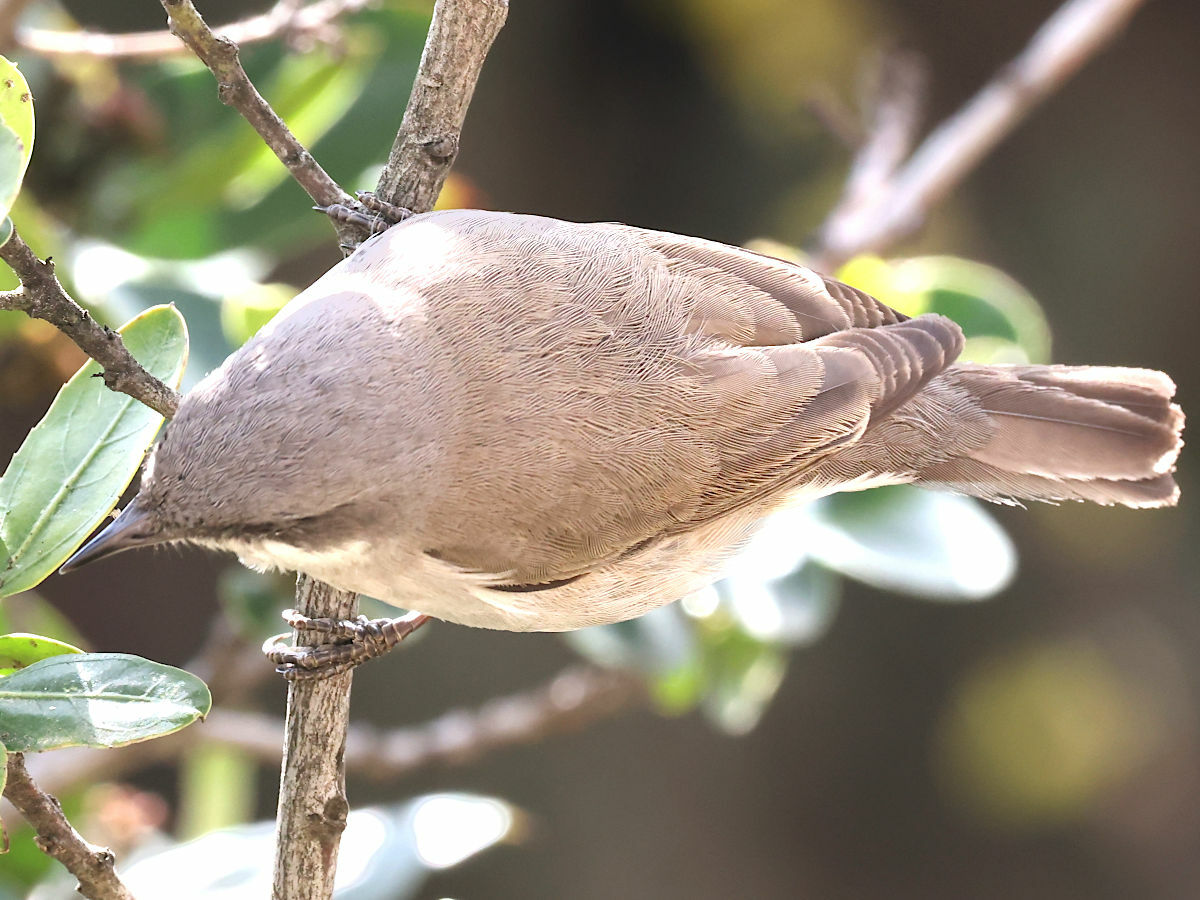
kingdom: Animalia
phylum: Chordata
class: Aves
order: Passeriformes
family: Sylviidae
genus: Sylvia
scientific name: Sylvia curruca
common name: Lesser whitethroat
